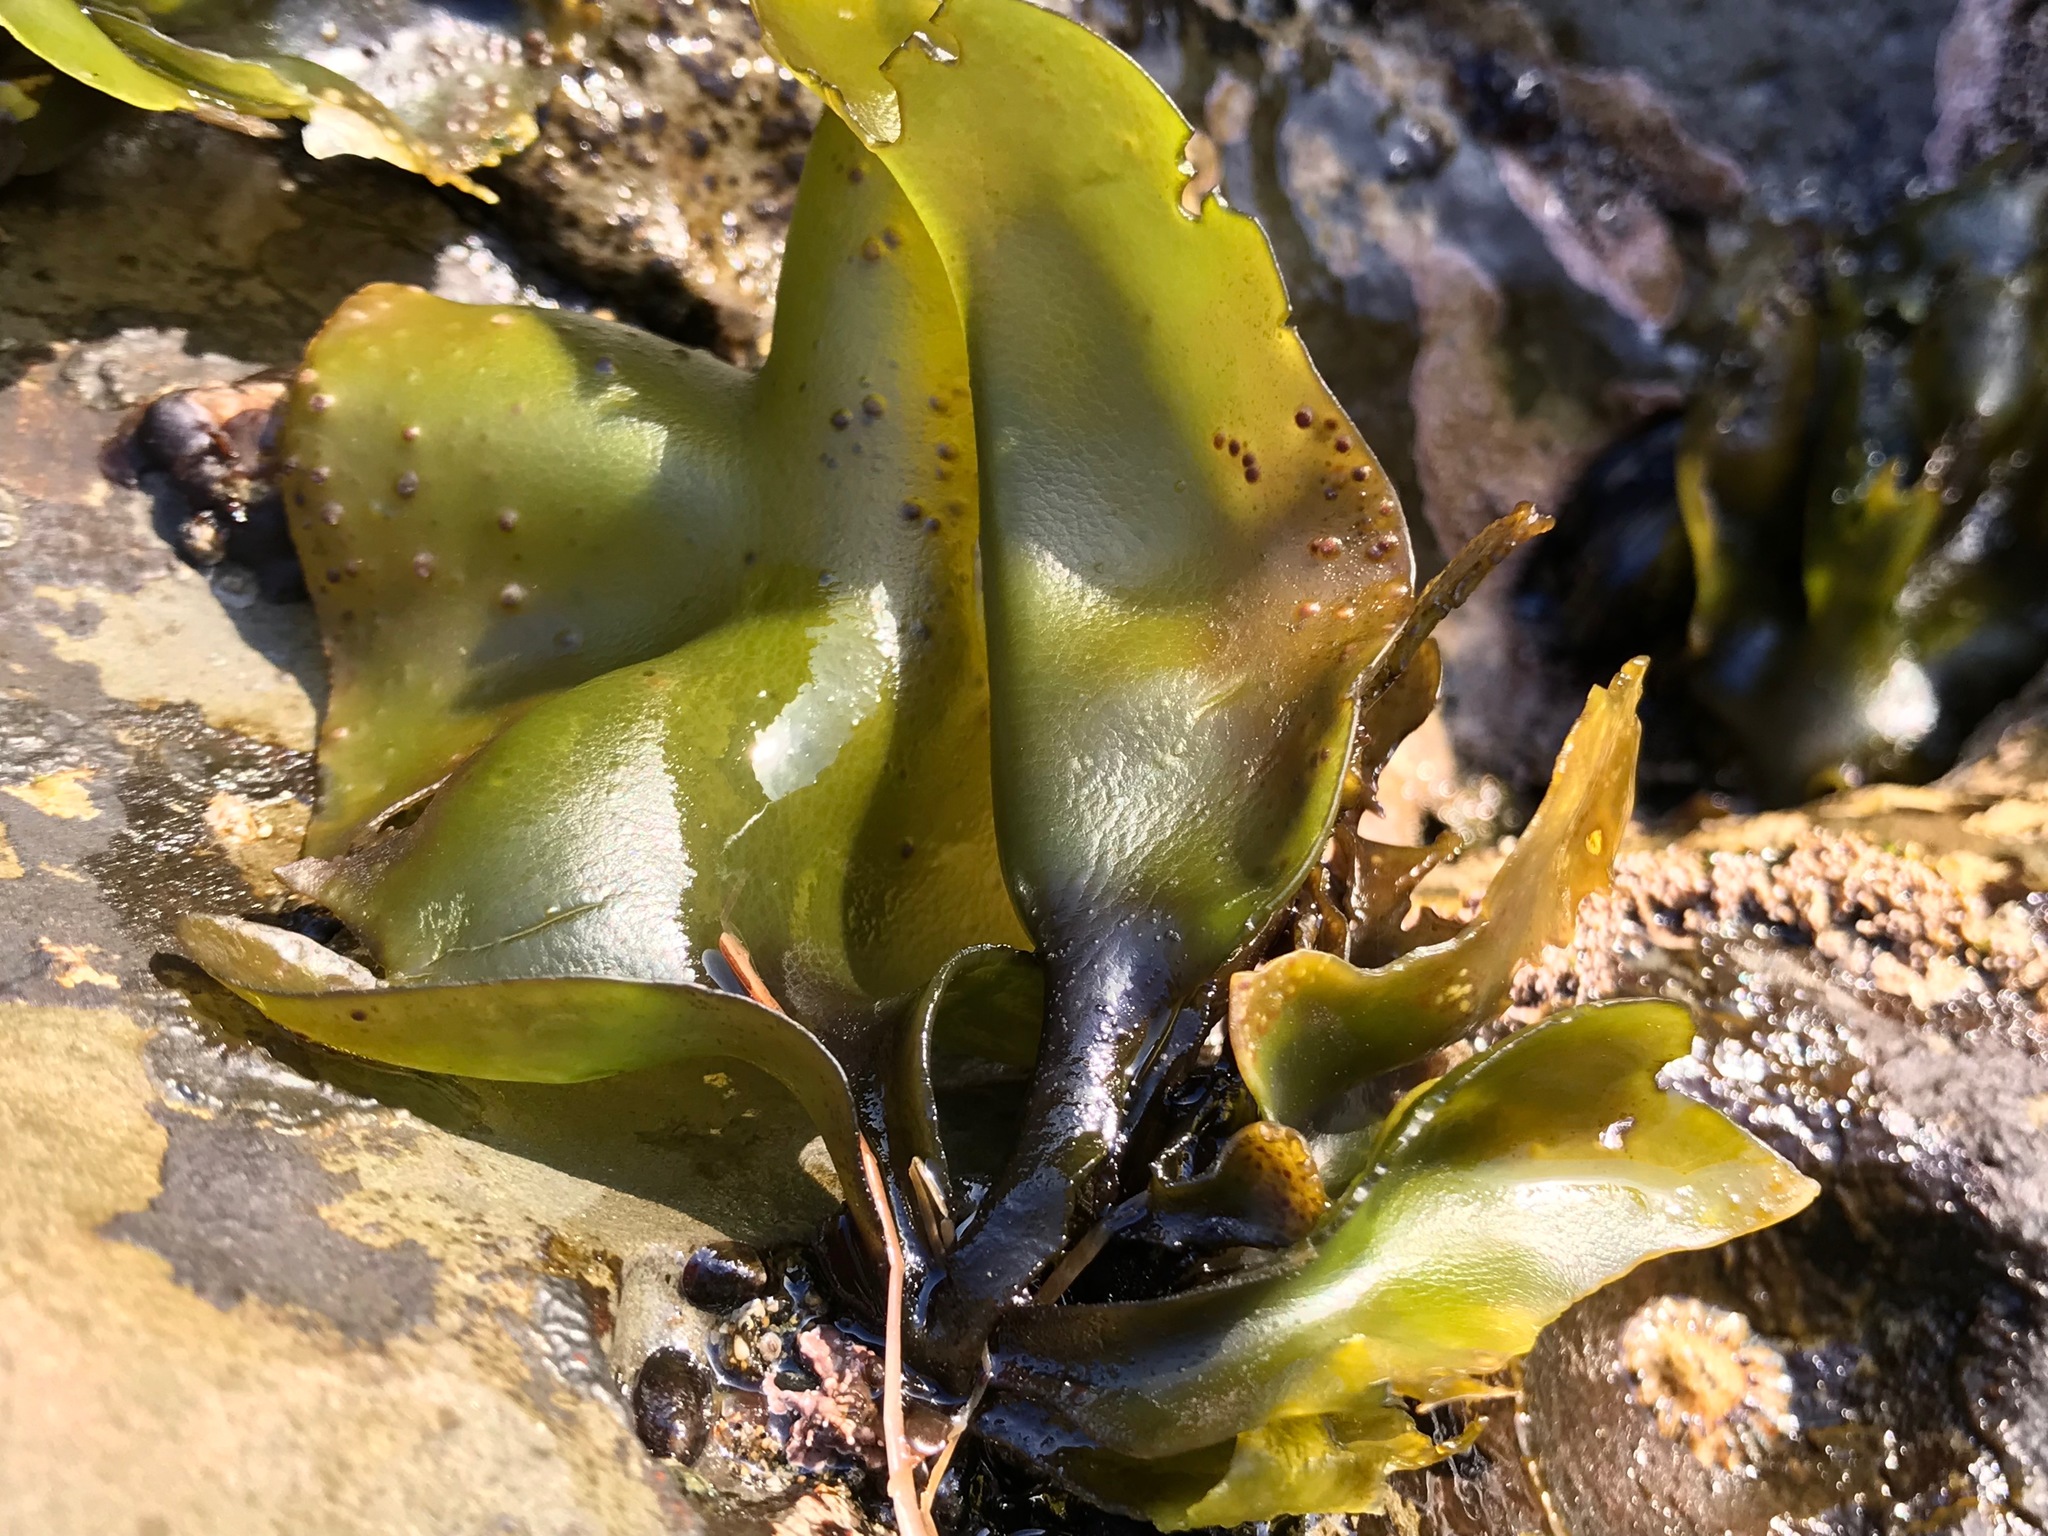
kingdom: Plantae
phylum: Rhodophyta
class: Florideophyceae
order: Gigartinales
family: Gigartinaceae
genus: Mazzaella
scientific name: Mazzaella flaccida
